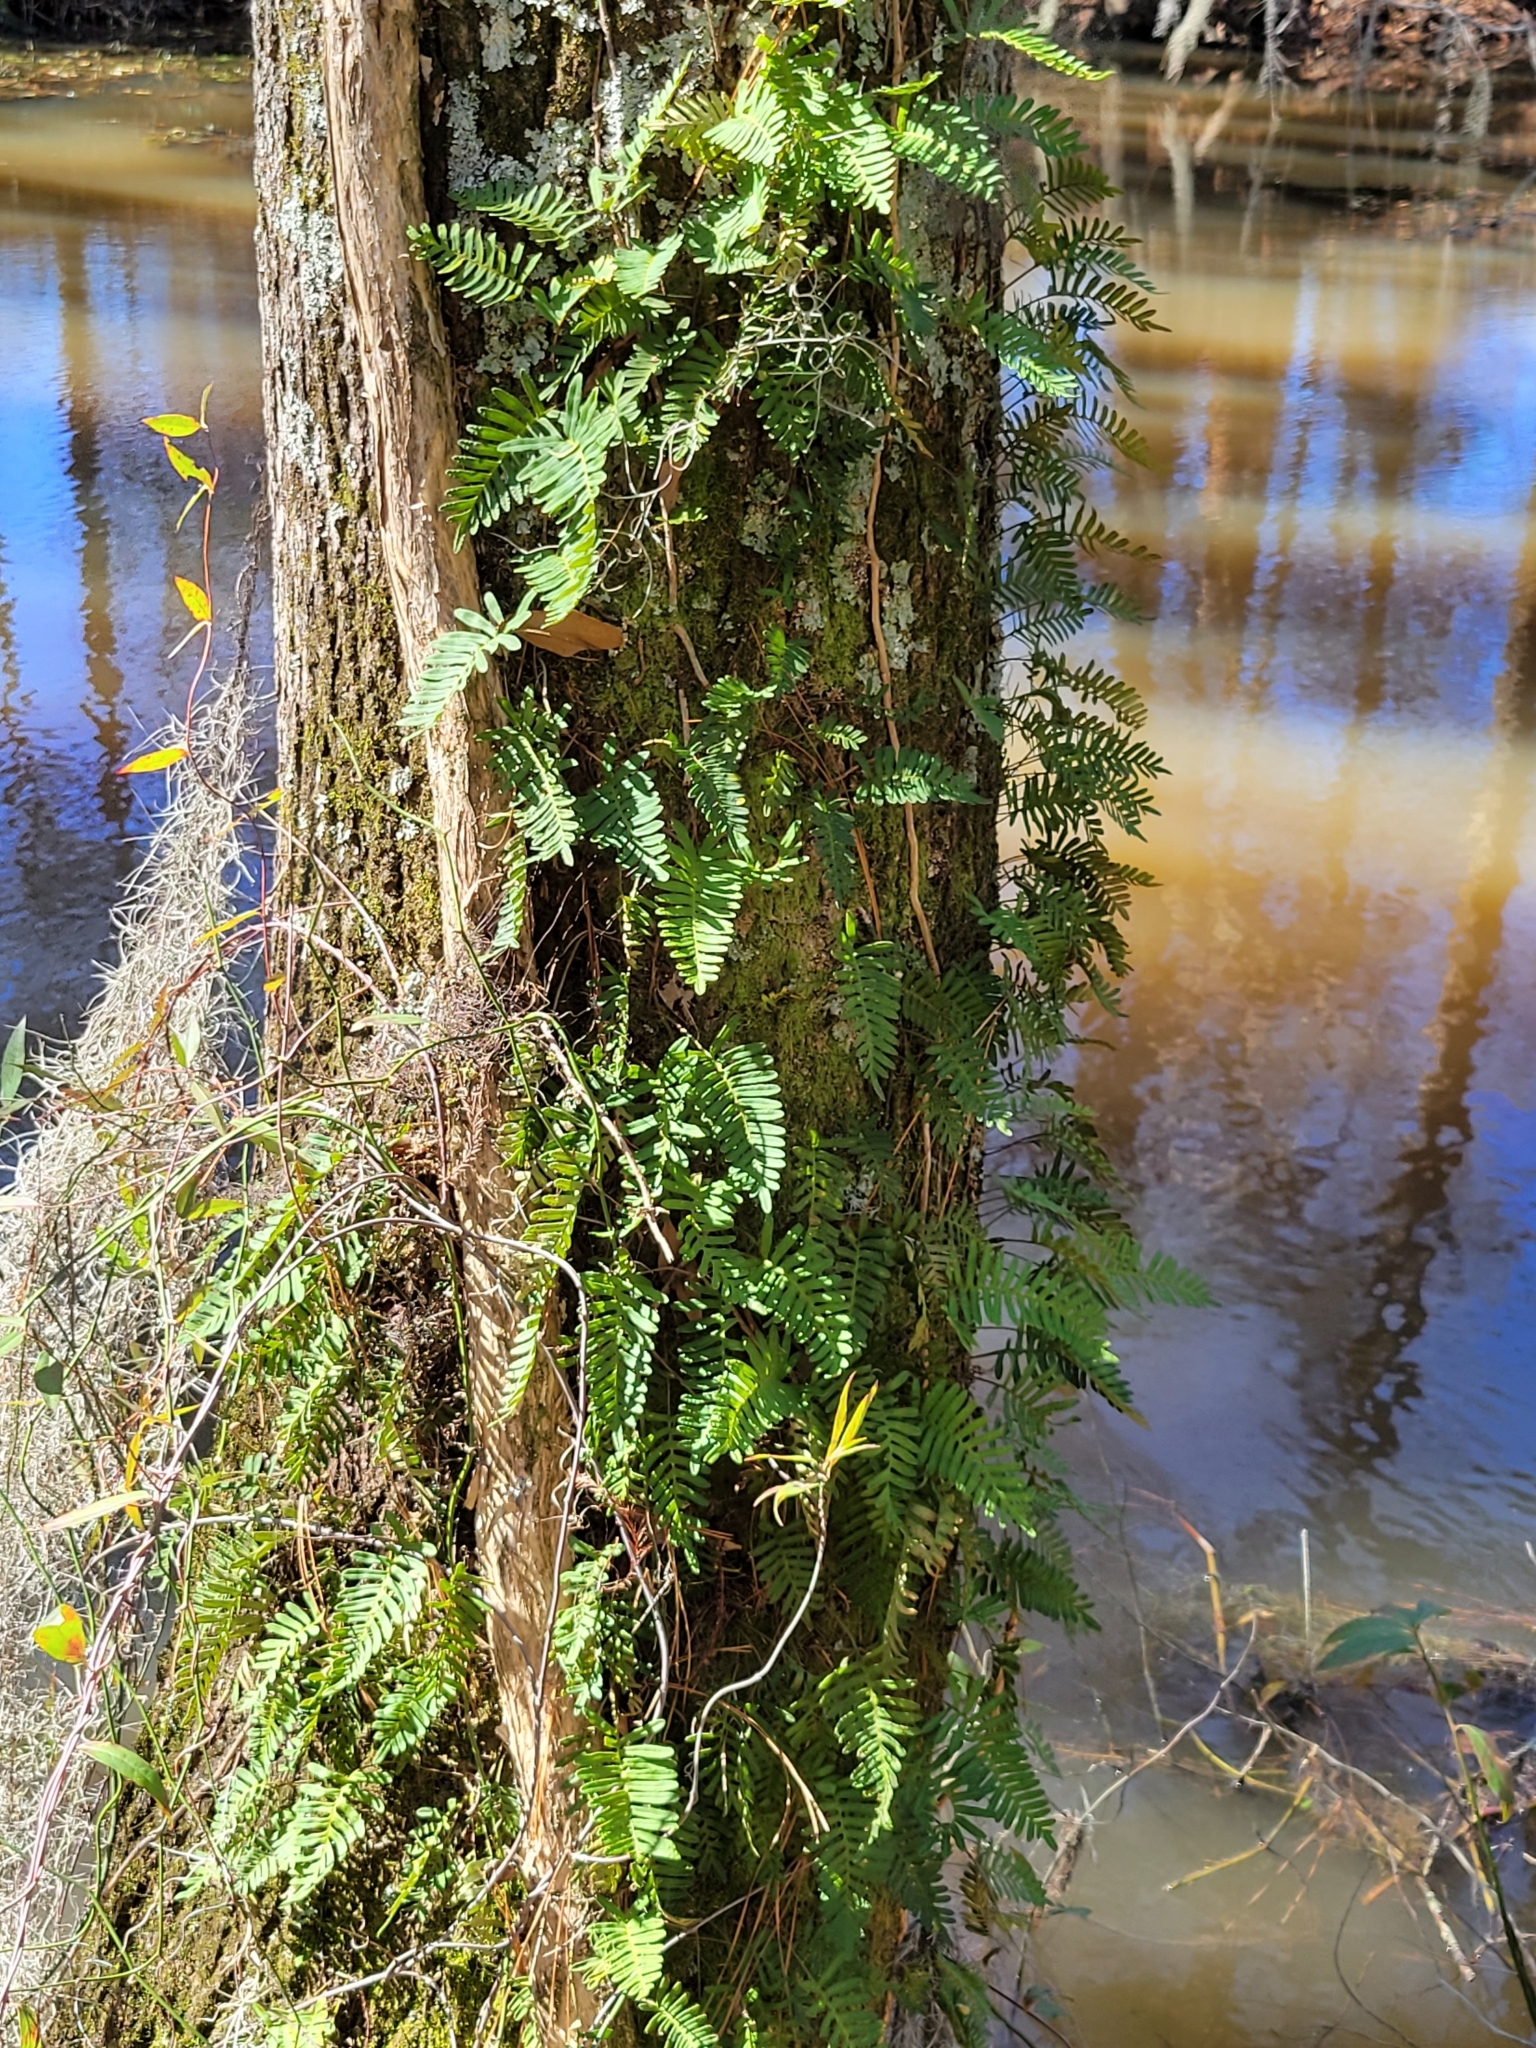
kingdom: Plantae
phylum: Tracheophyta
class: Polypodiopsida
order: Polypodiales
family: Polypodiaceae
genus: Pleopeltis
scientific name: Pleopeltis michauxiana
